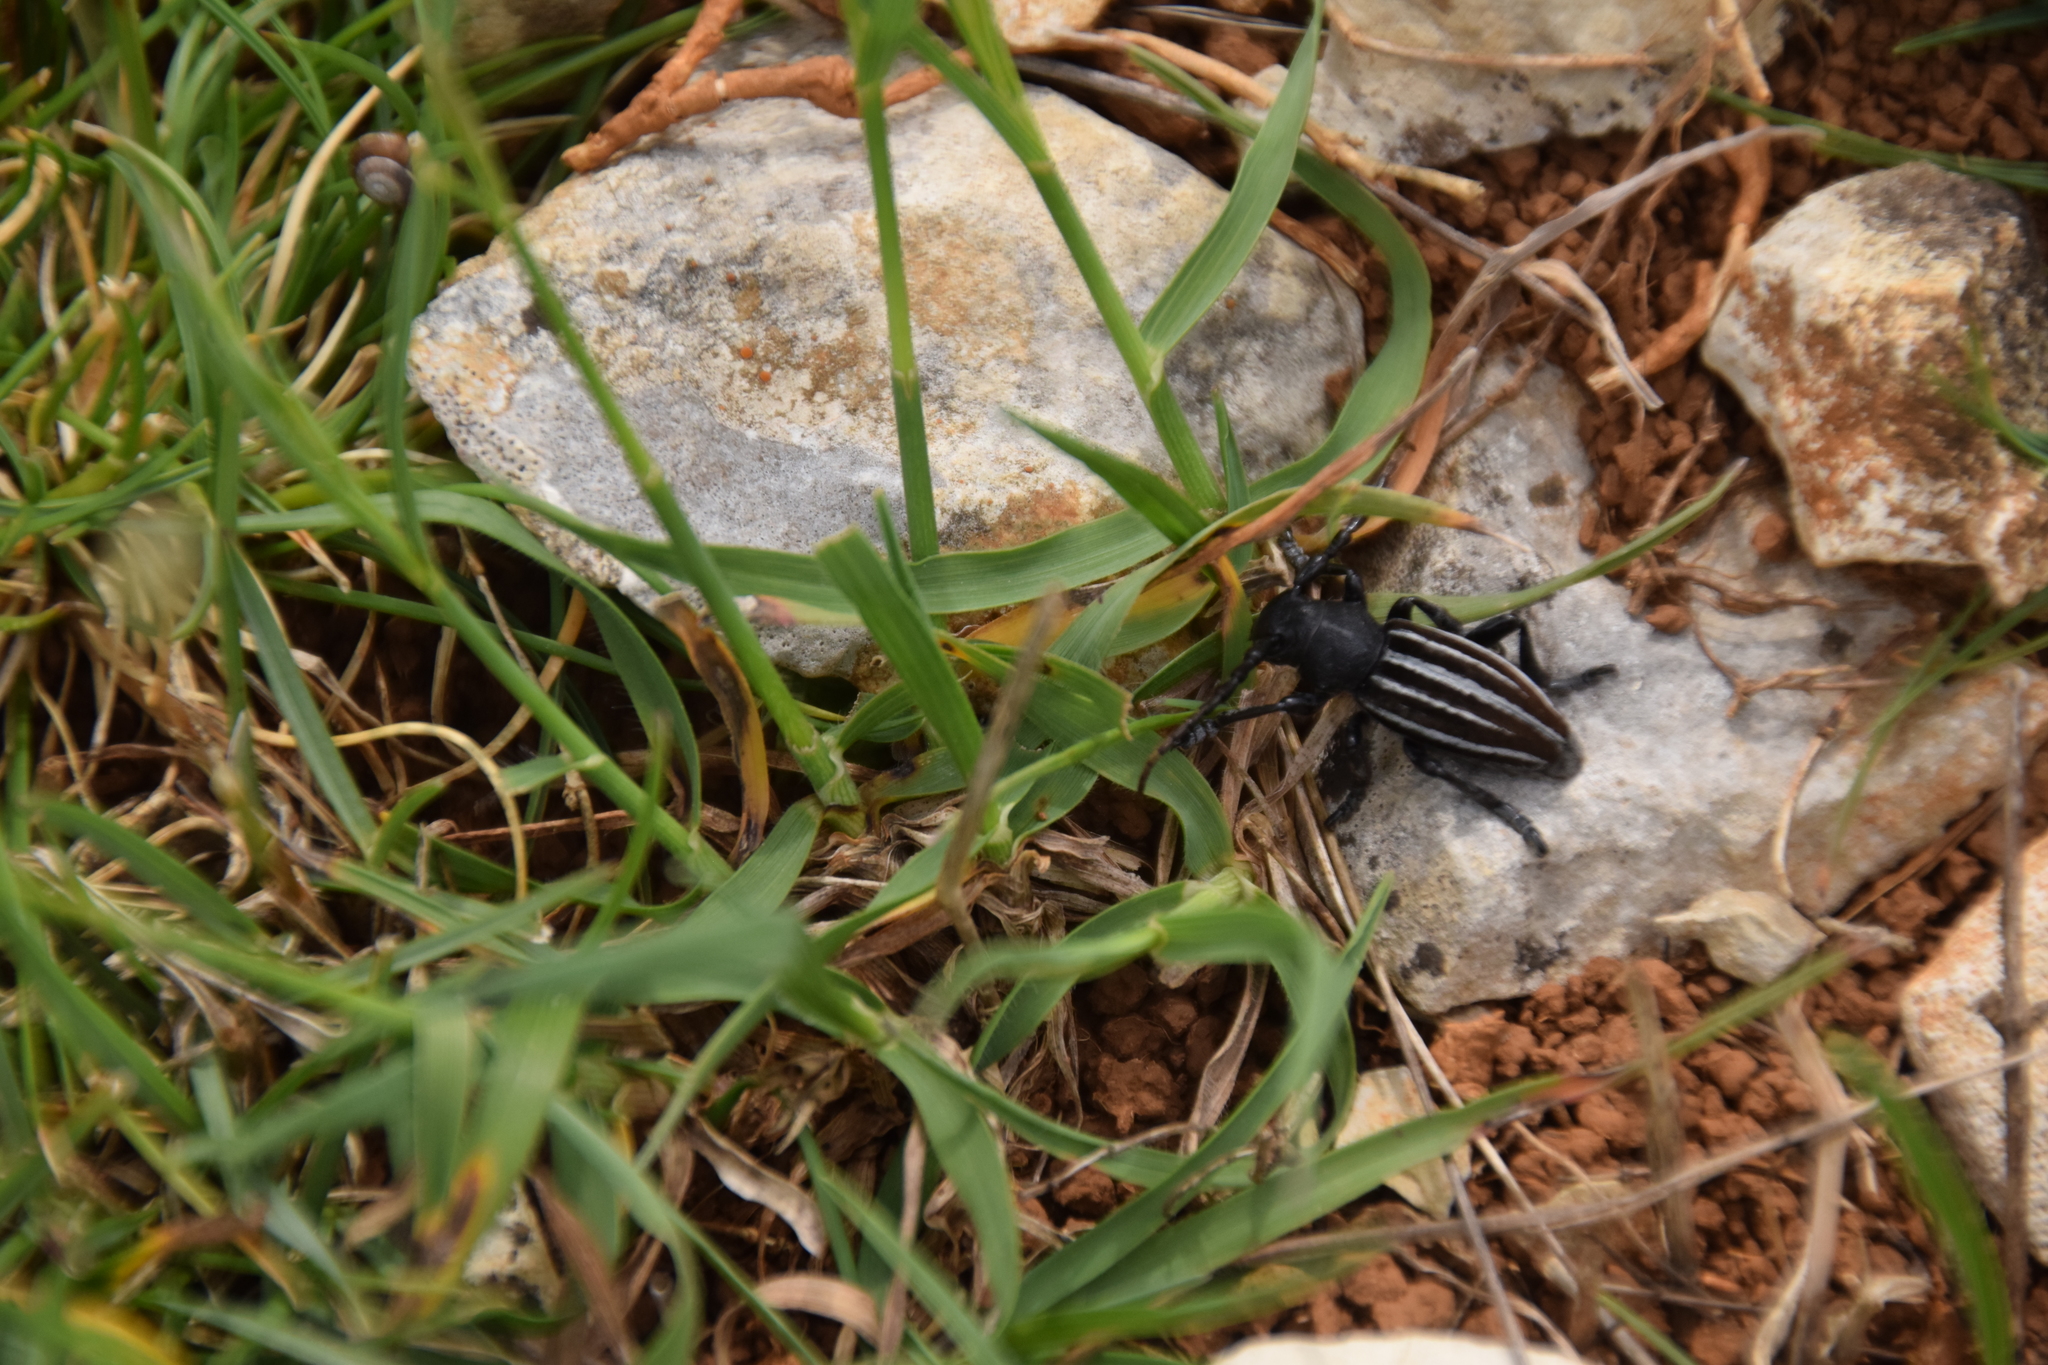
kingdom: Animalia
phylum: Arthropoda
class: Insecta
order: Coleoptera
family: Cerambycidae
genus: Iberodorcadion
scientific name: Iberodorcadion fuliginator
